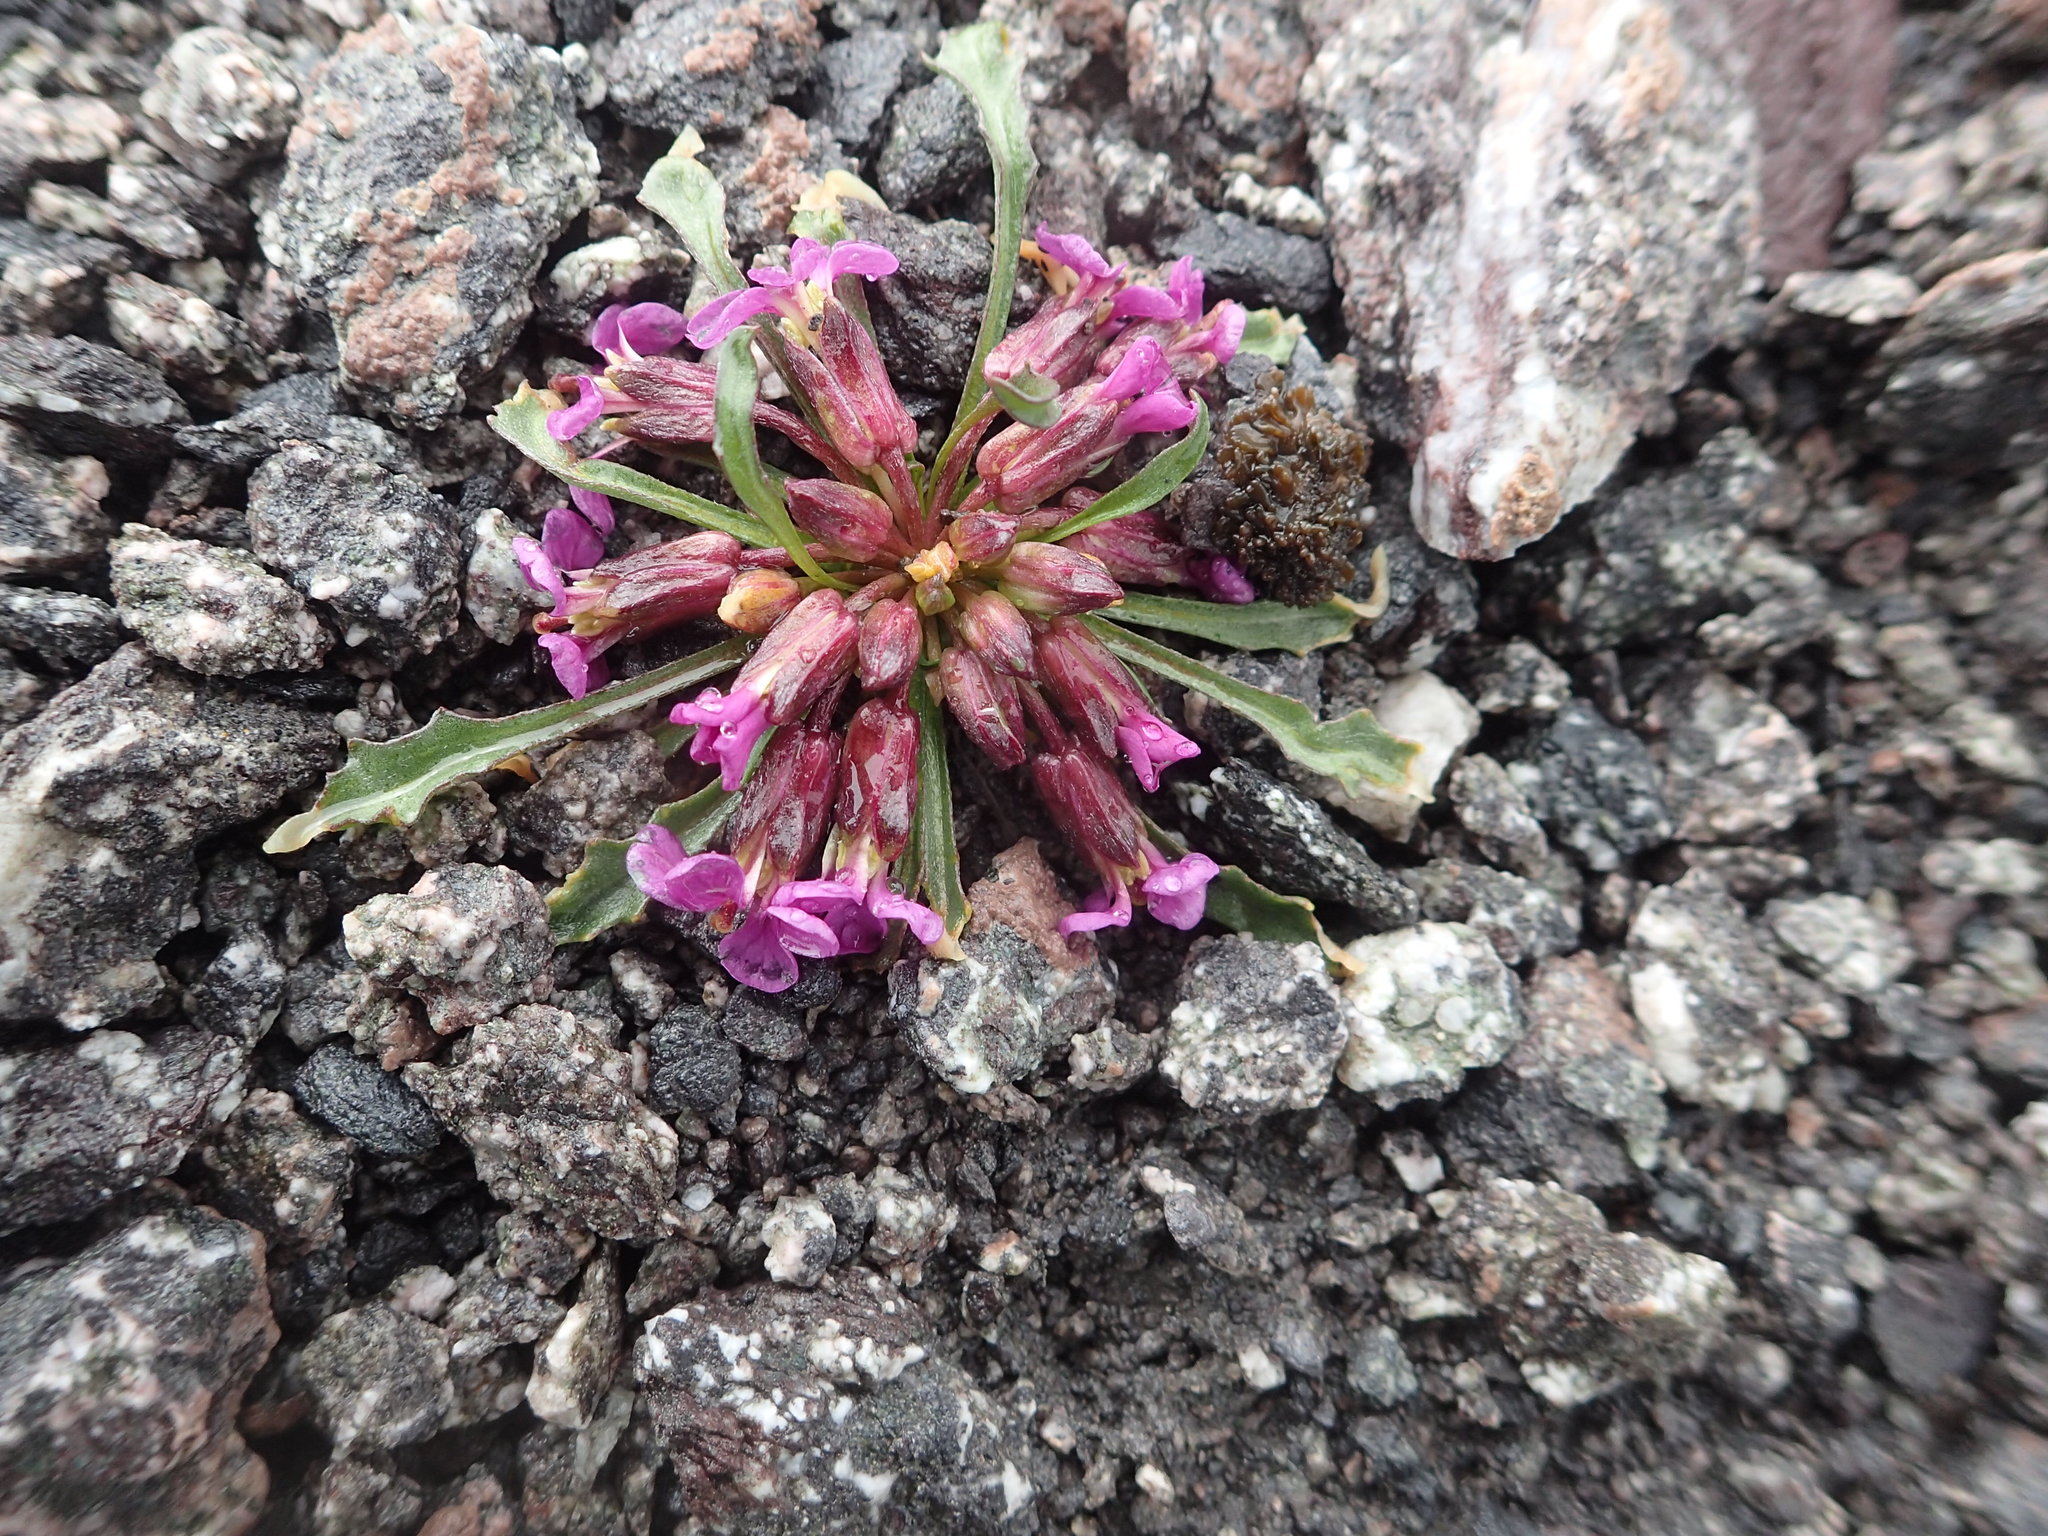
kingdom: Plantae
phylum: Tracheophyta
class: Magnoliopsida
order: Brassicales
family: Brassicaceae
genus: Erysimum
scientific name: Erysimum pallasii
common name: Pallas' wallflower
